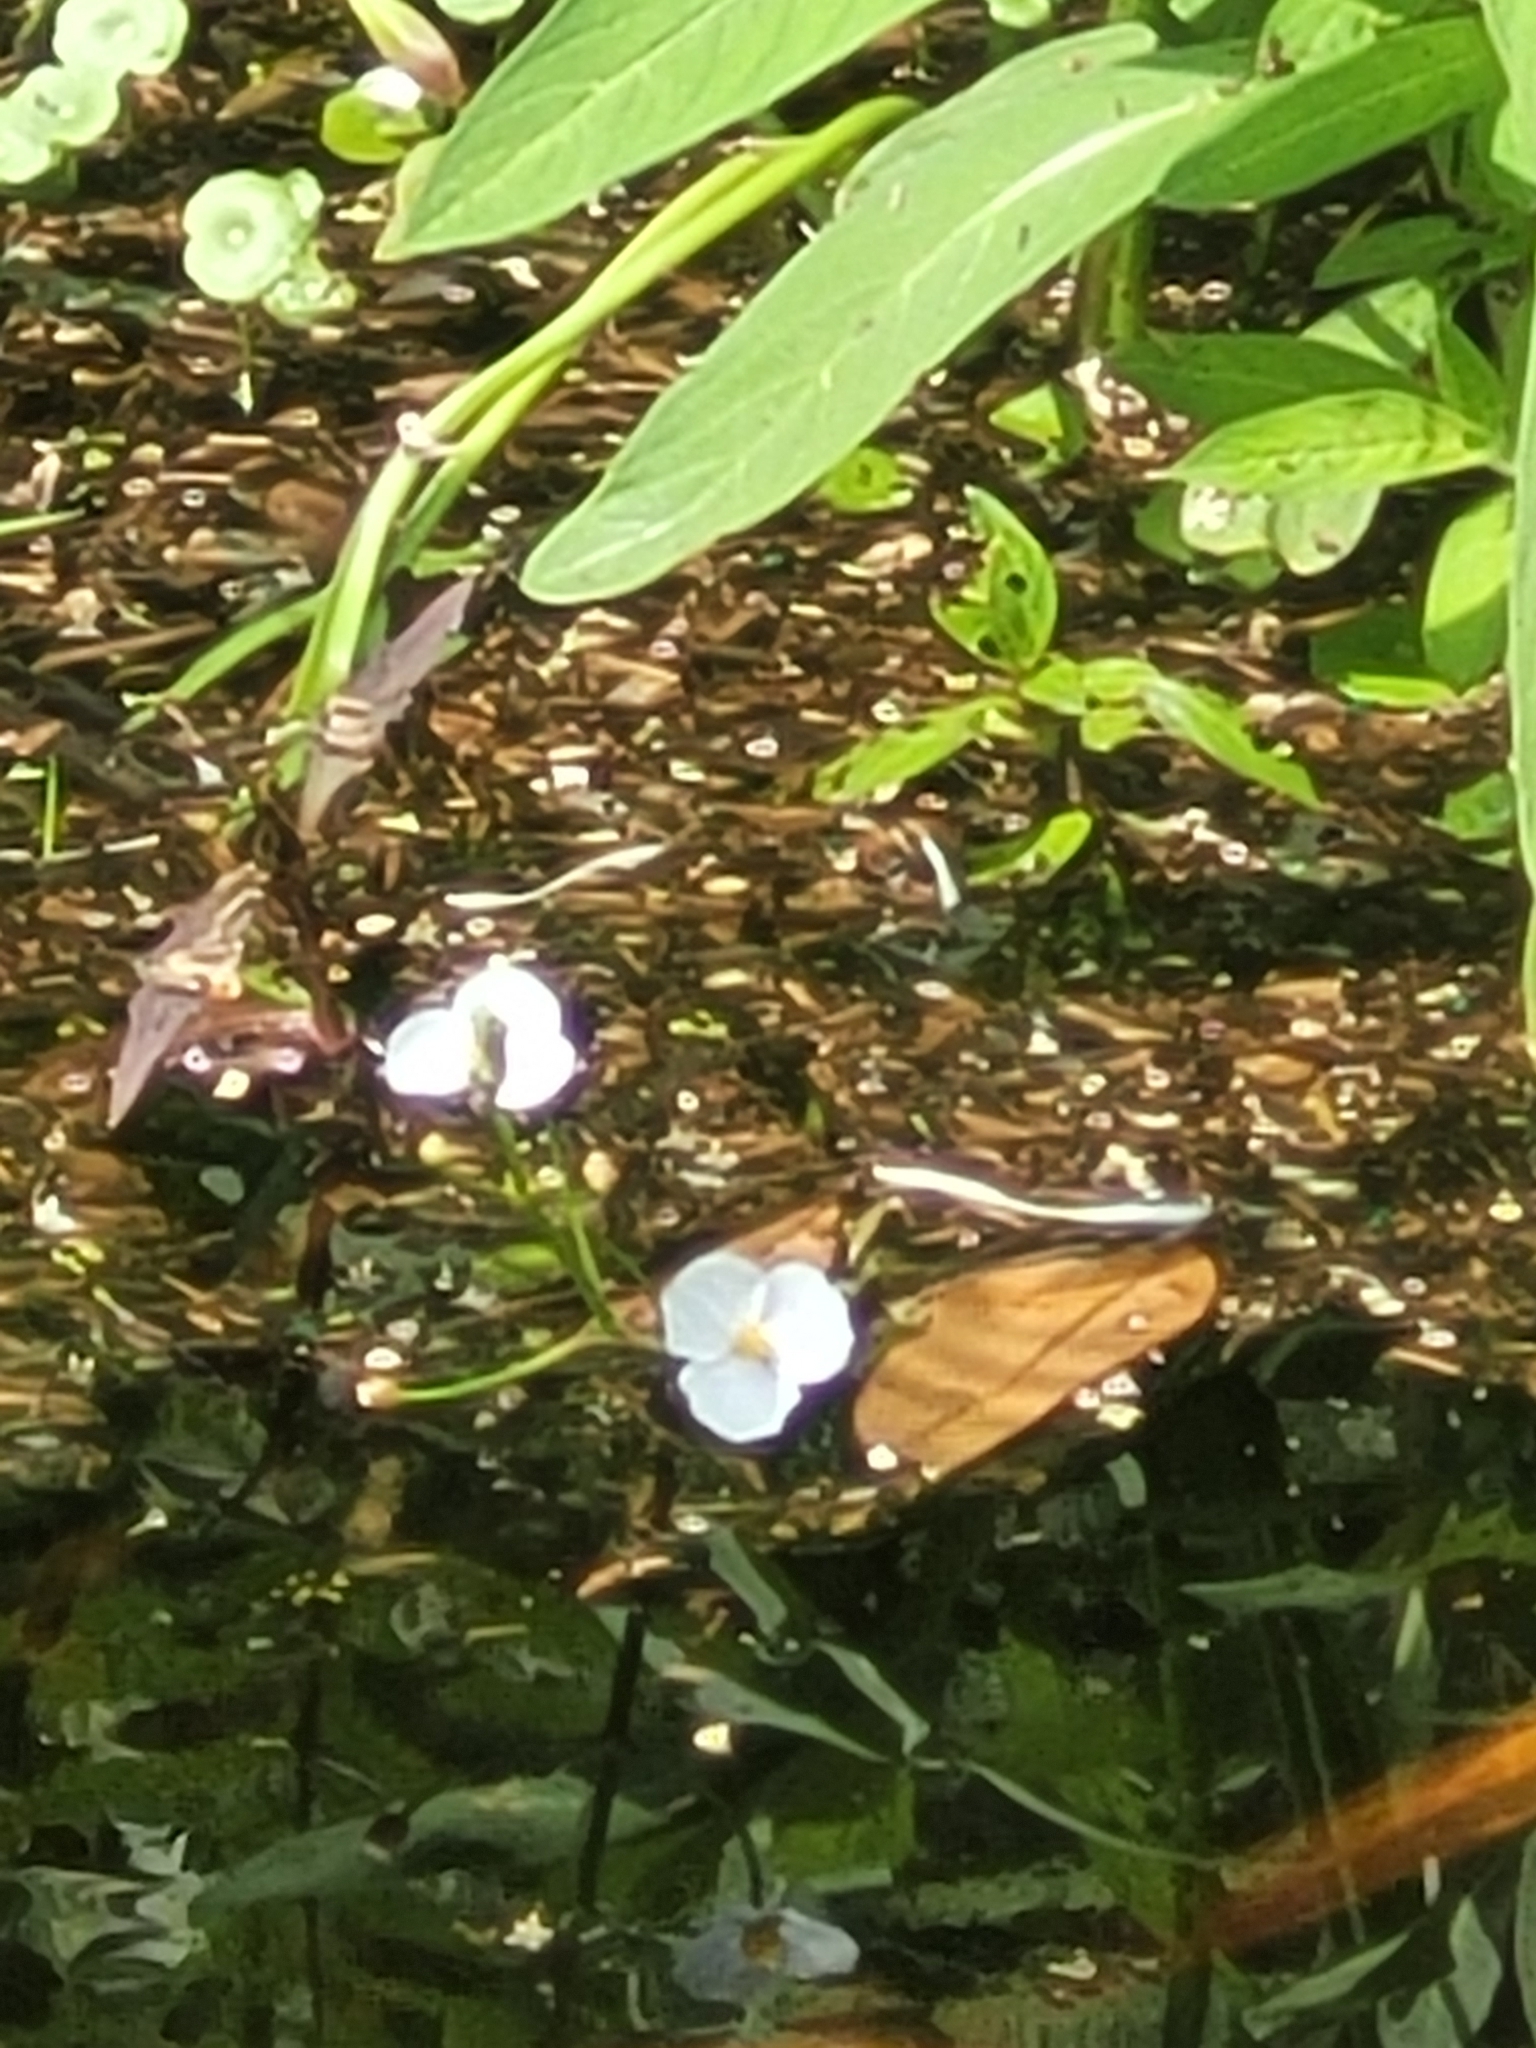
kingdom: Plantae
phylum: Tracheophyta
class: Liliopsida
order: Alismatales
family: Alismataceae
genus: Sagittaria
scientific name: Sagittaria graminea
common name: Grass-leaved arrowhead
